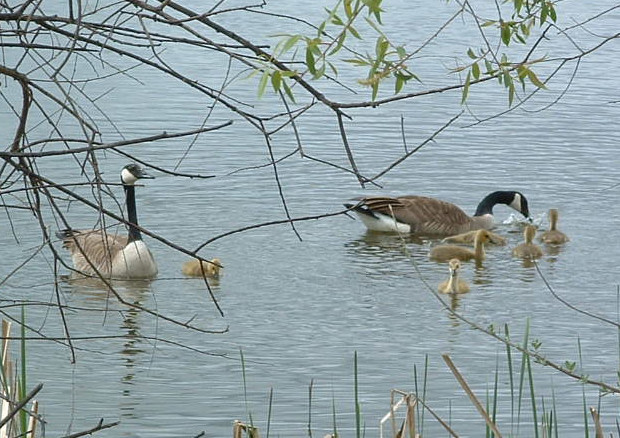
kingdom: Animalia
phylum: Chordata
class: Aves
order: Anseriformes
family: Anatidae
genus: Branta
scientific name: Branta canadensis
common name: Canada goose
